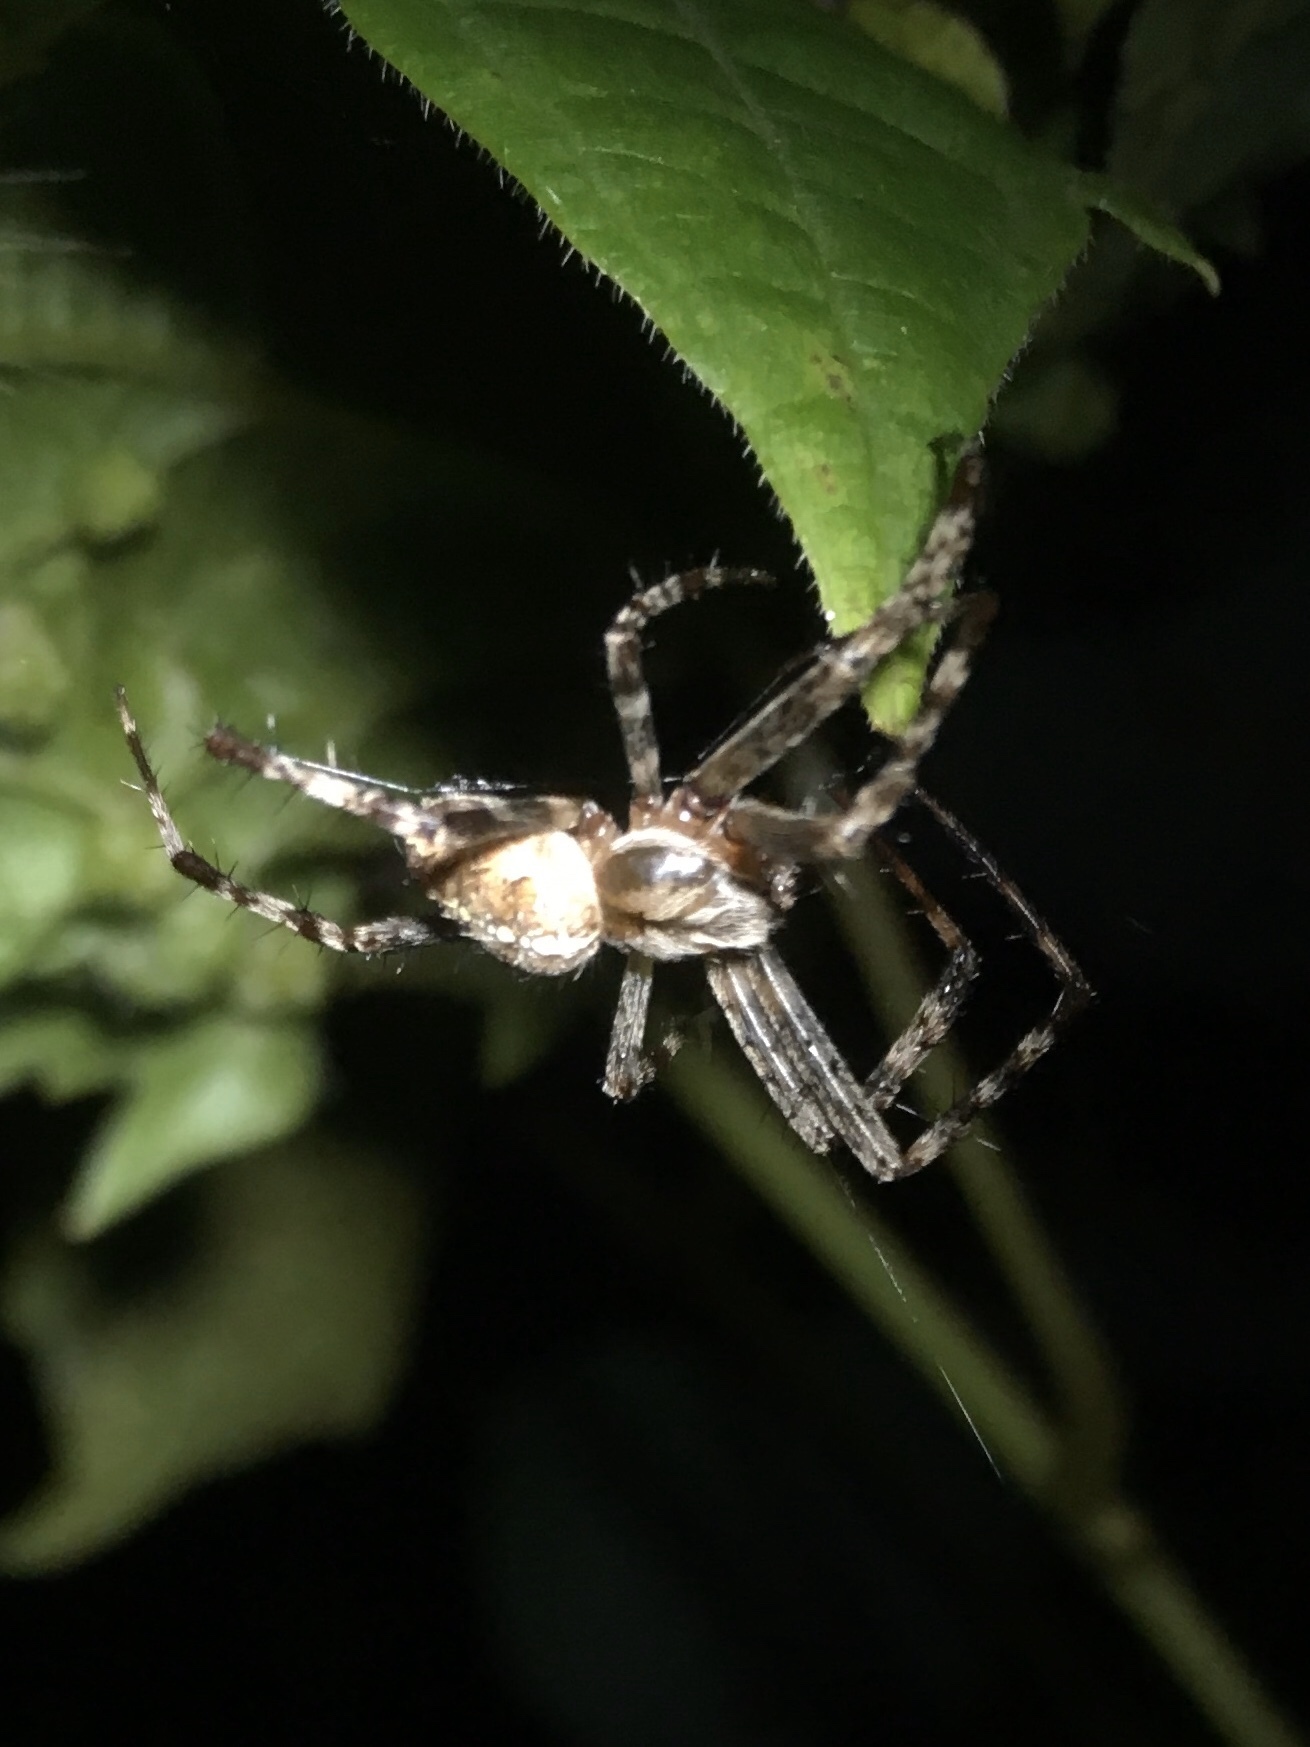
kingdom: Animalia
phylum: Arthropoda
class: Arachnida
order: Araneae
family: Araneidae
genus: Araneus
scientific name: Araneus diadematus
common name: Cross orbweaver
